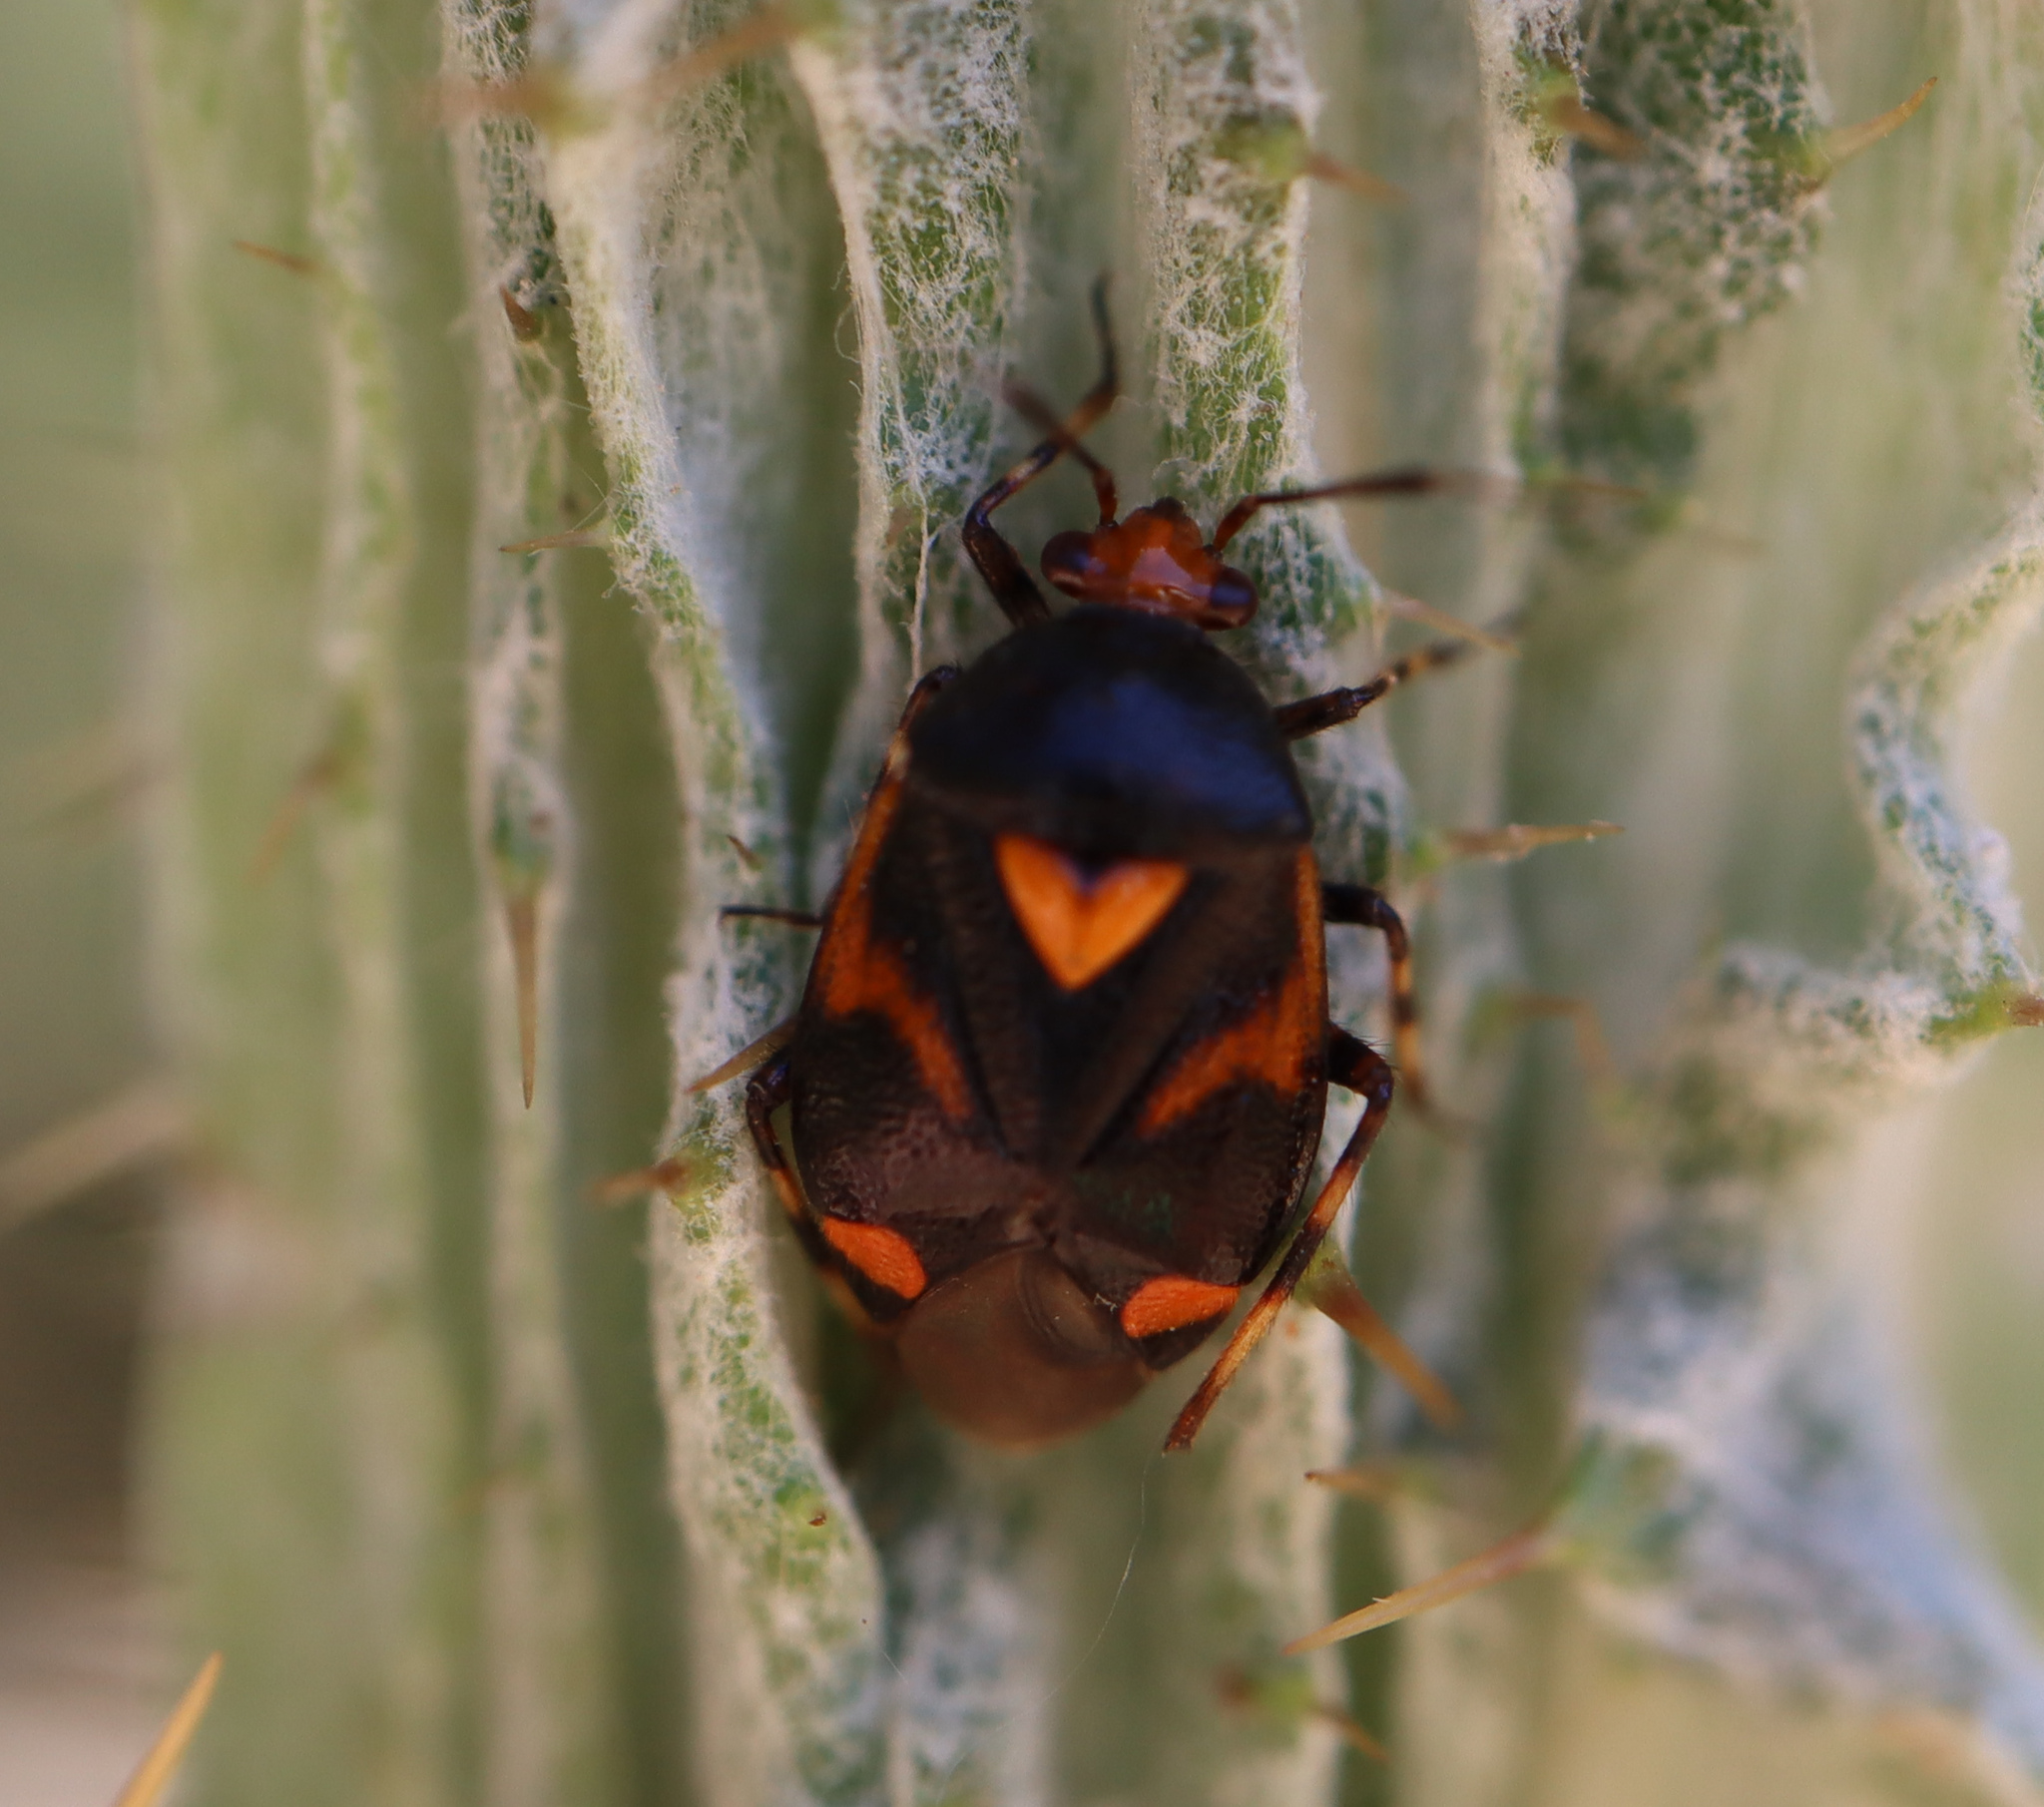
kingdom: Animalia
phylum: Arthropoda
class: Insecta
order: Hemiptera
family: Miridae
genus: Deraeocoris
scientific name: Deraeocoris schach
